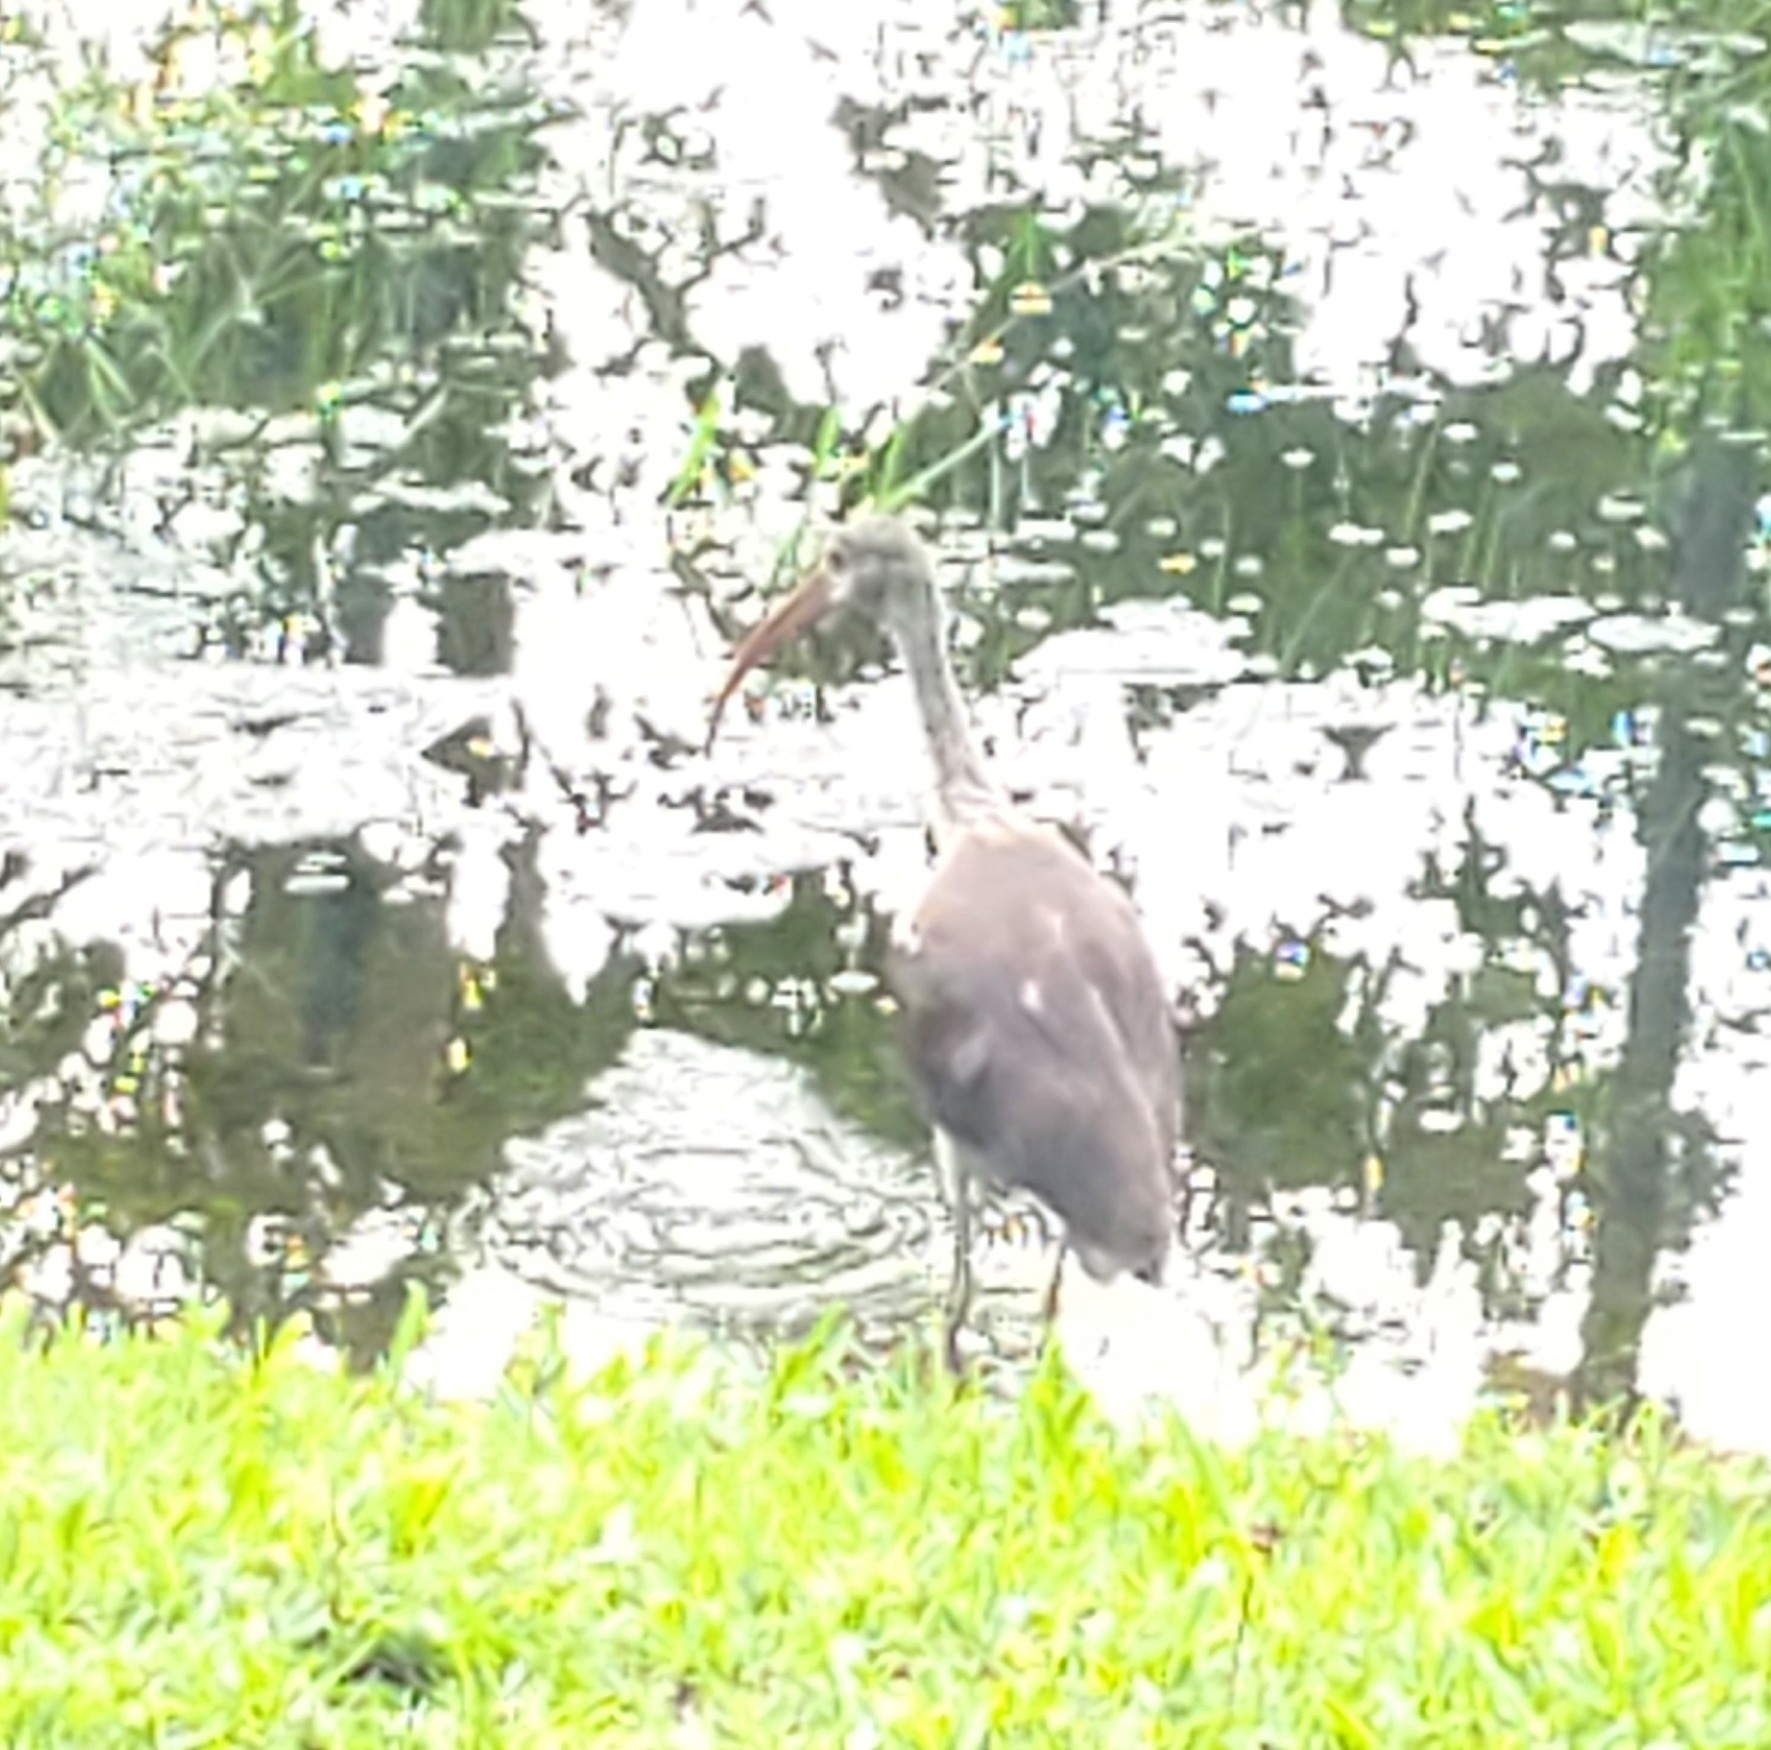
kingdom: Animalia
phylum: Chordata
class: Aves
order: Pelecaniformes
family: Threskiornithidae
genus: Eudocimus
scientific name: Eudocimus albus
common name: White ibis
